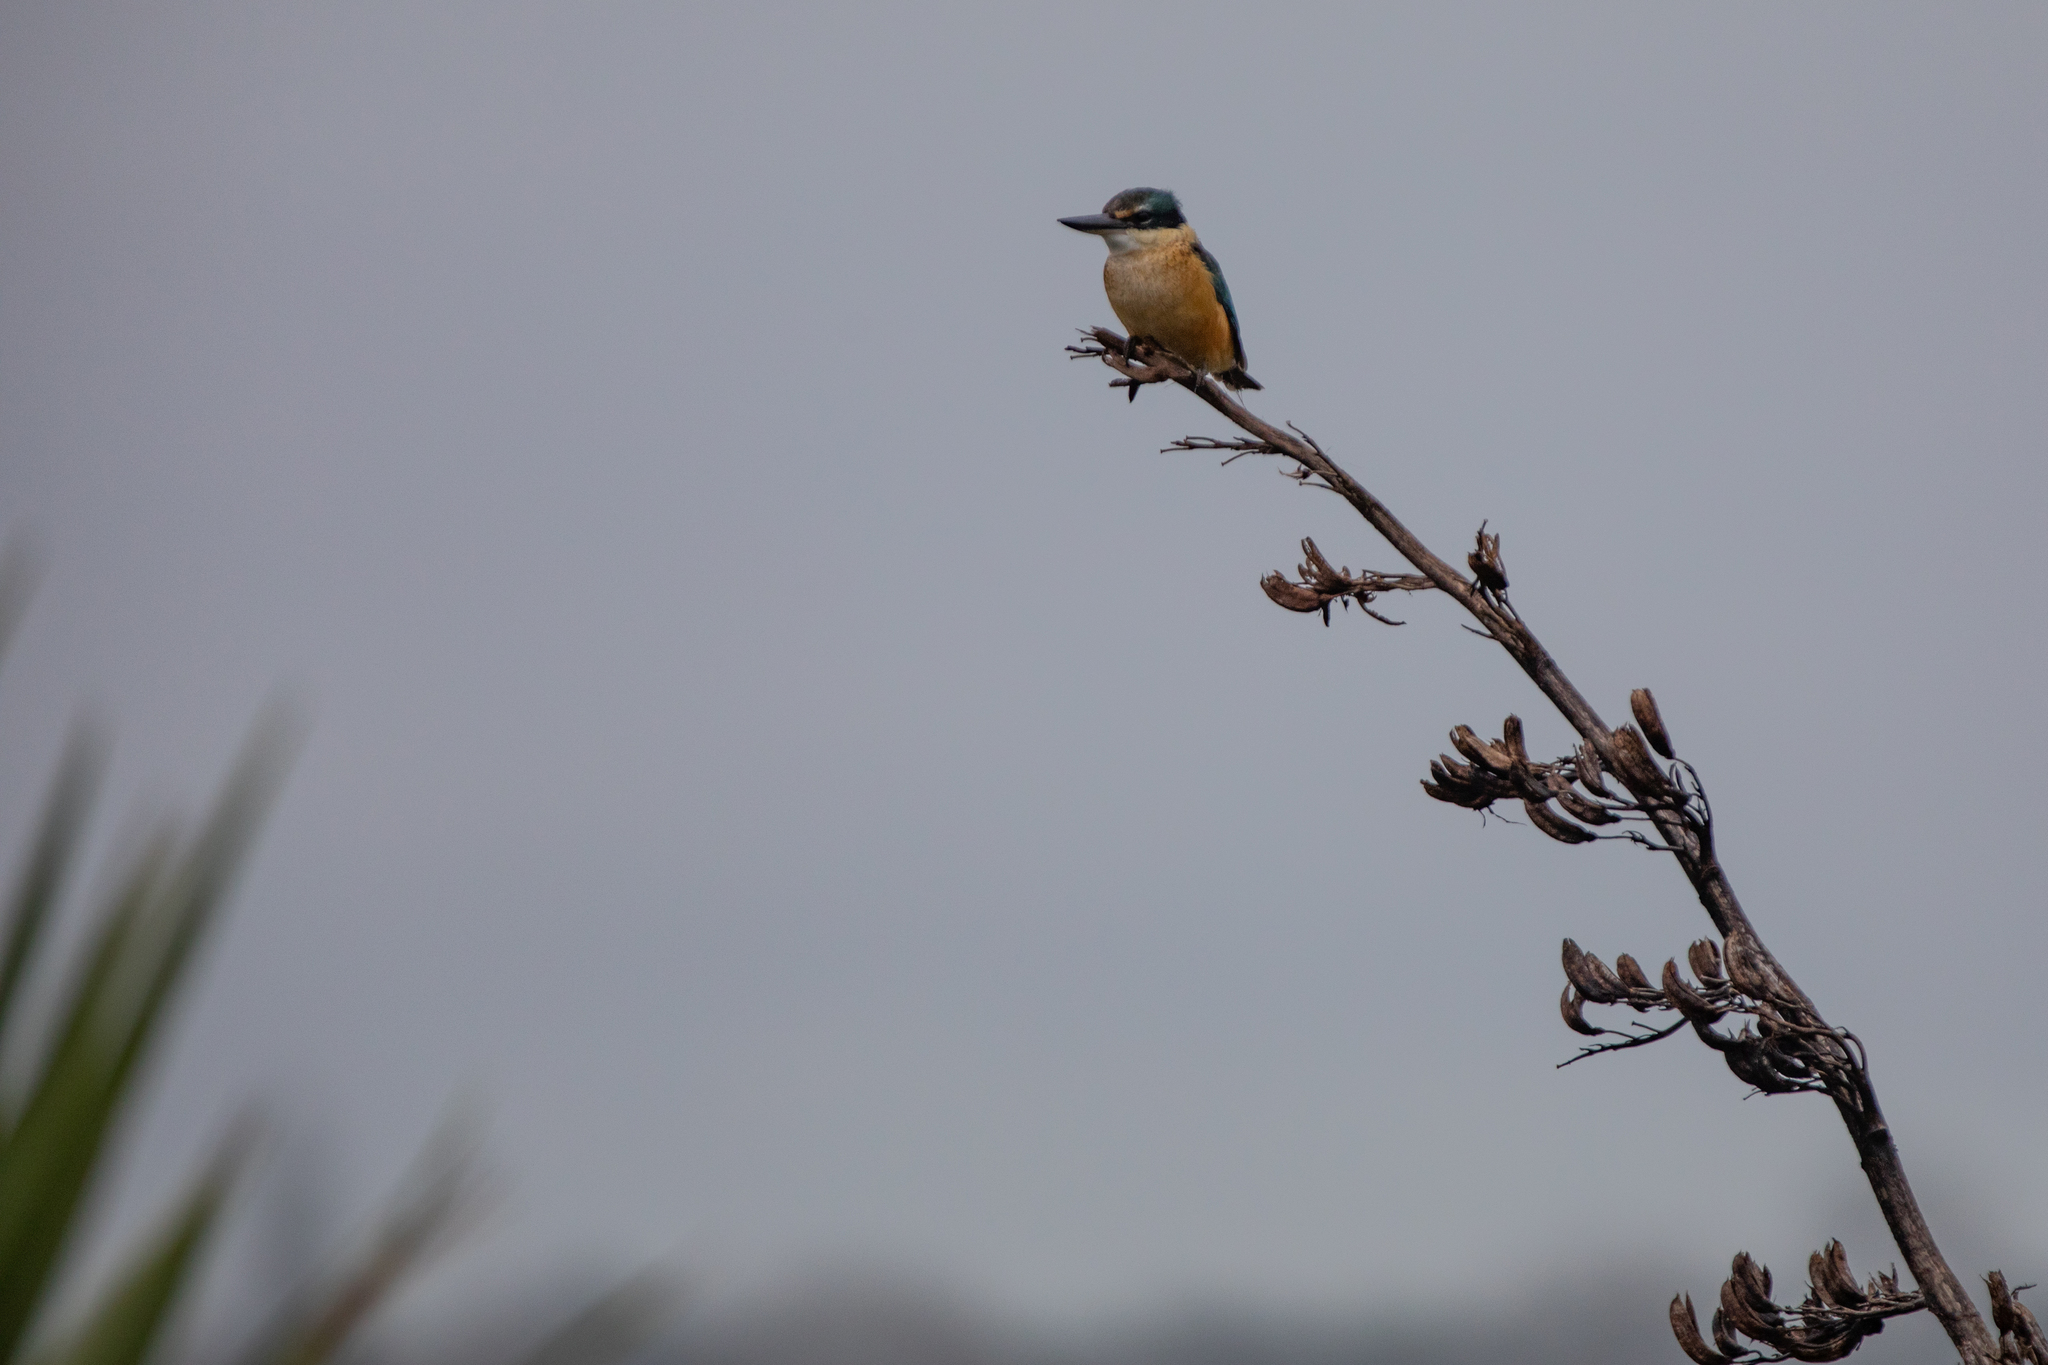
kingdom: Animalia
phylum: Chordata
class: Aves
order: Coraciiformes
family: Alcedinidae
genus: Todiramphus
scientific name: Todiramphus sanctus
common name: Sacred kingfisher
